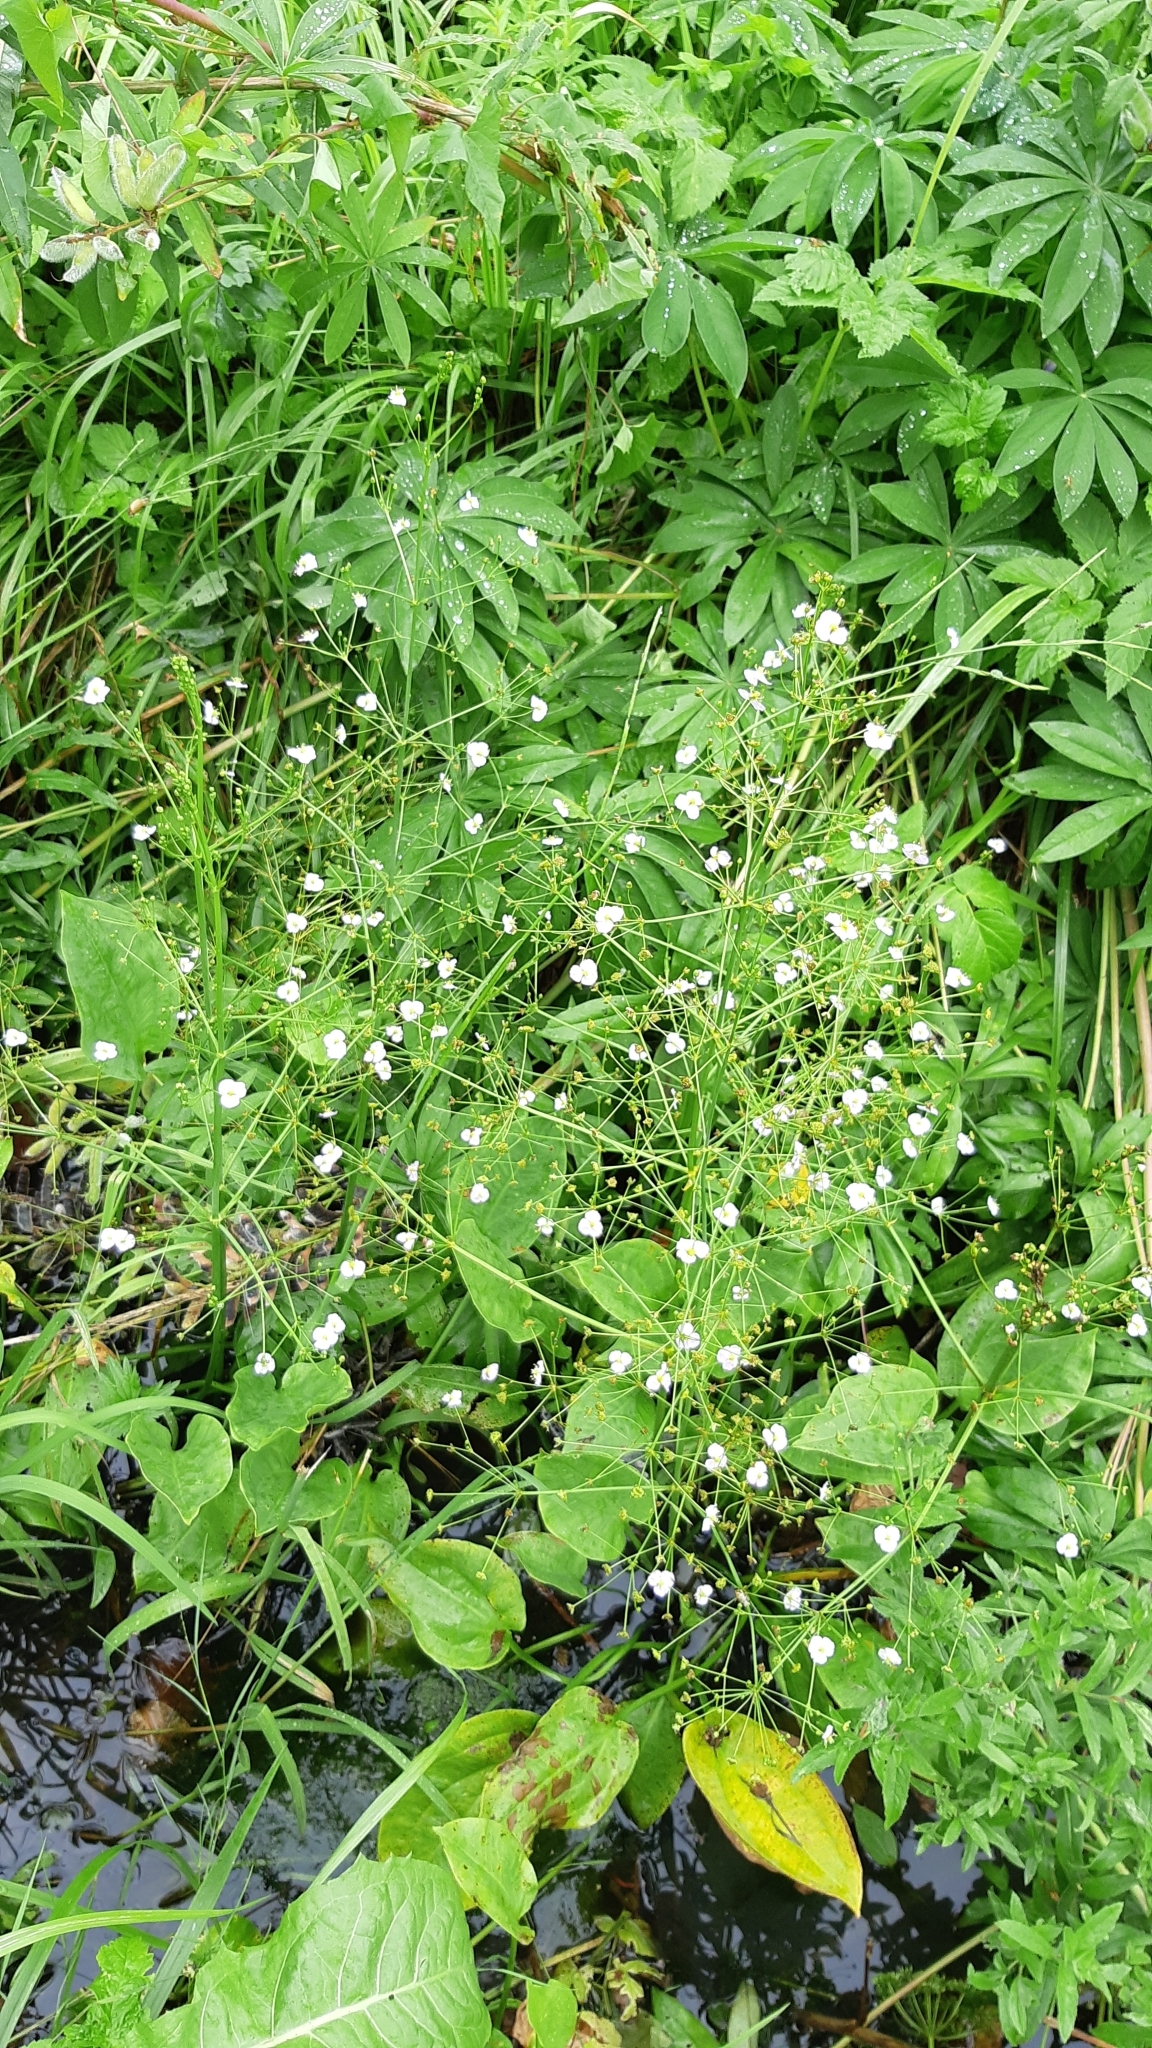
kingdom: Plantae
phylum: Tracheophyta
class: Liliopsida
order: Alismatales
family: Alismataceae
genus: Alisma
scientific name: Alisma plantago-aquatica
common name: Water-plantain
